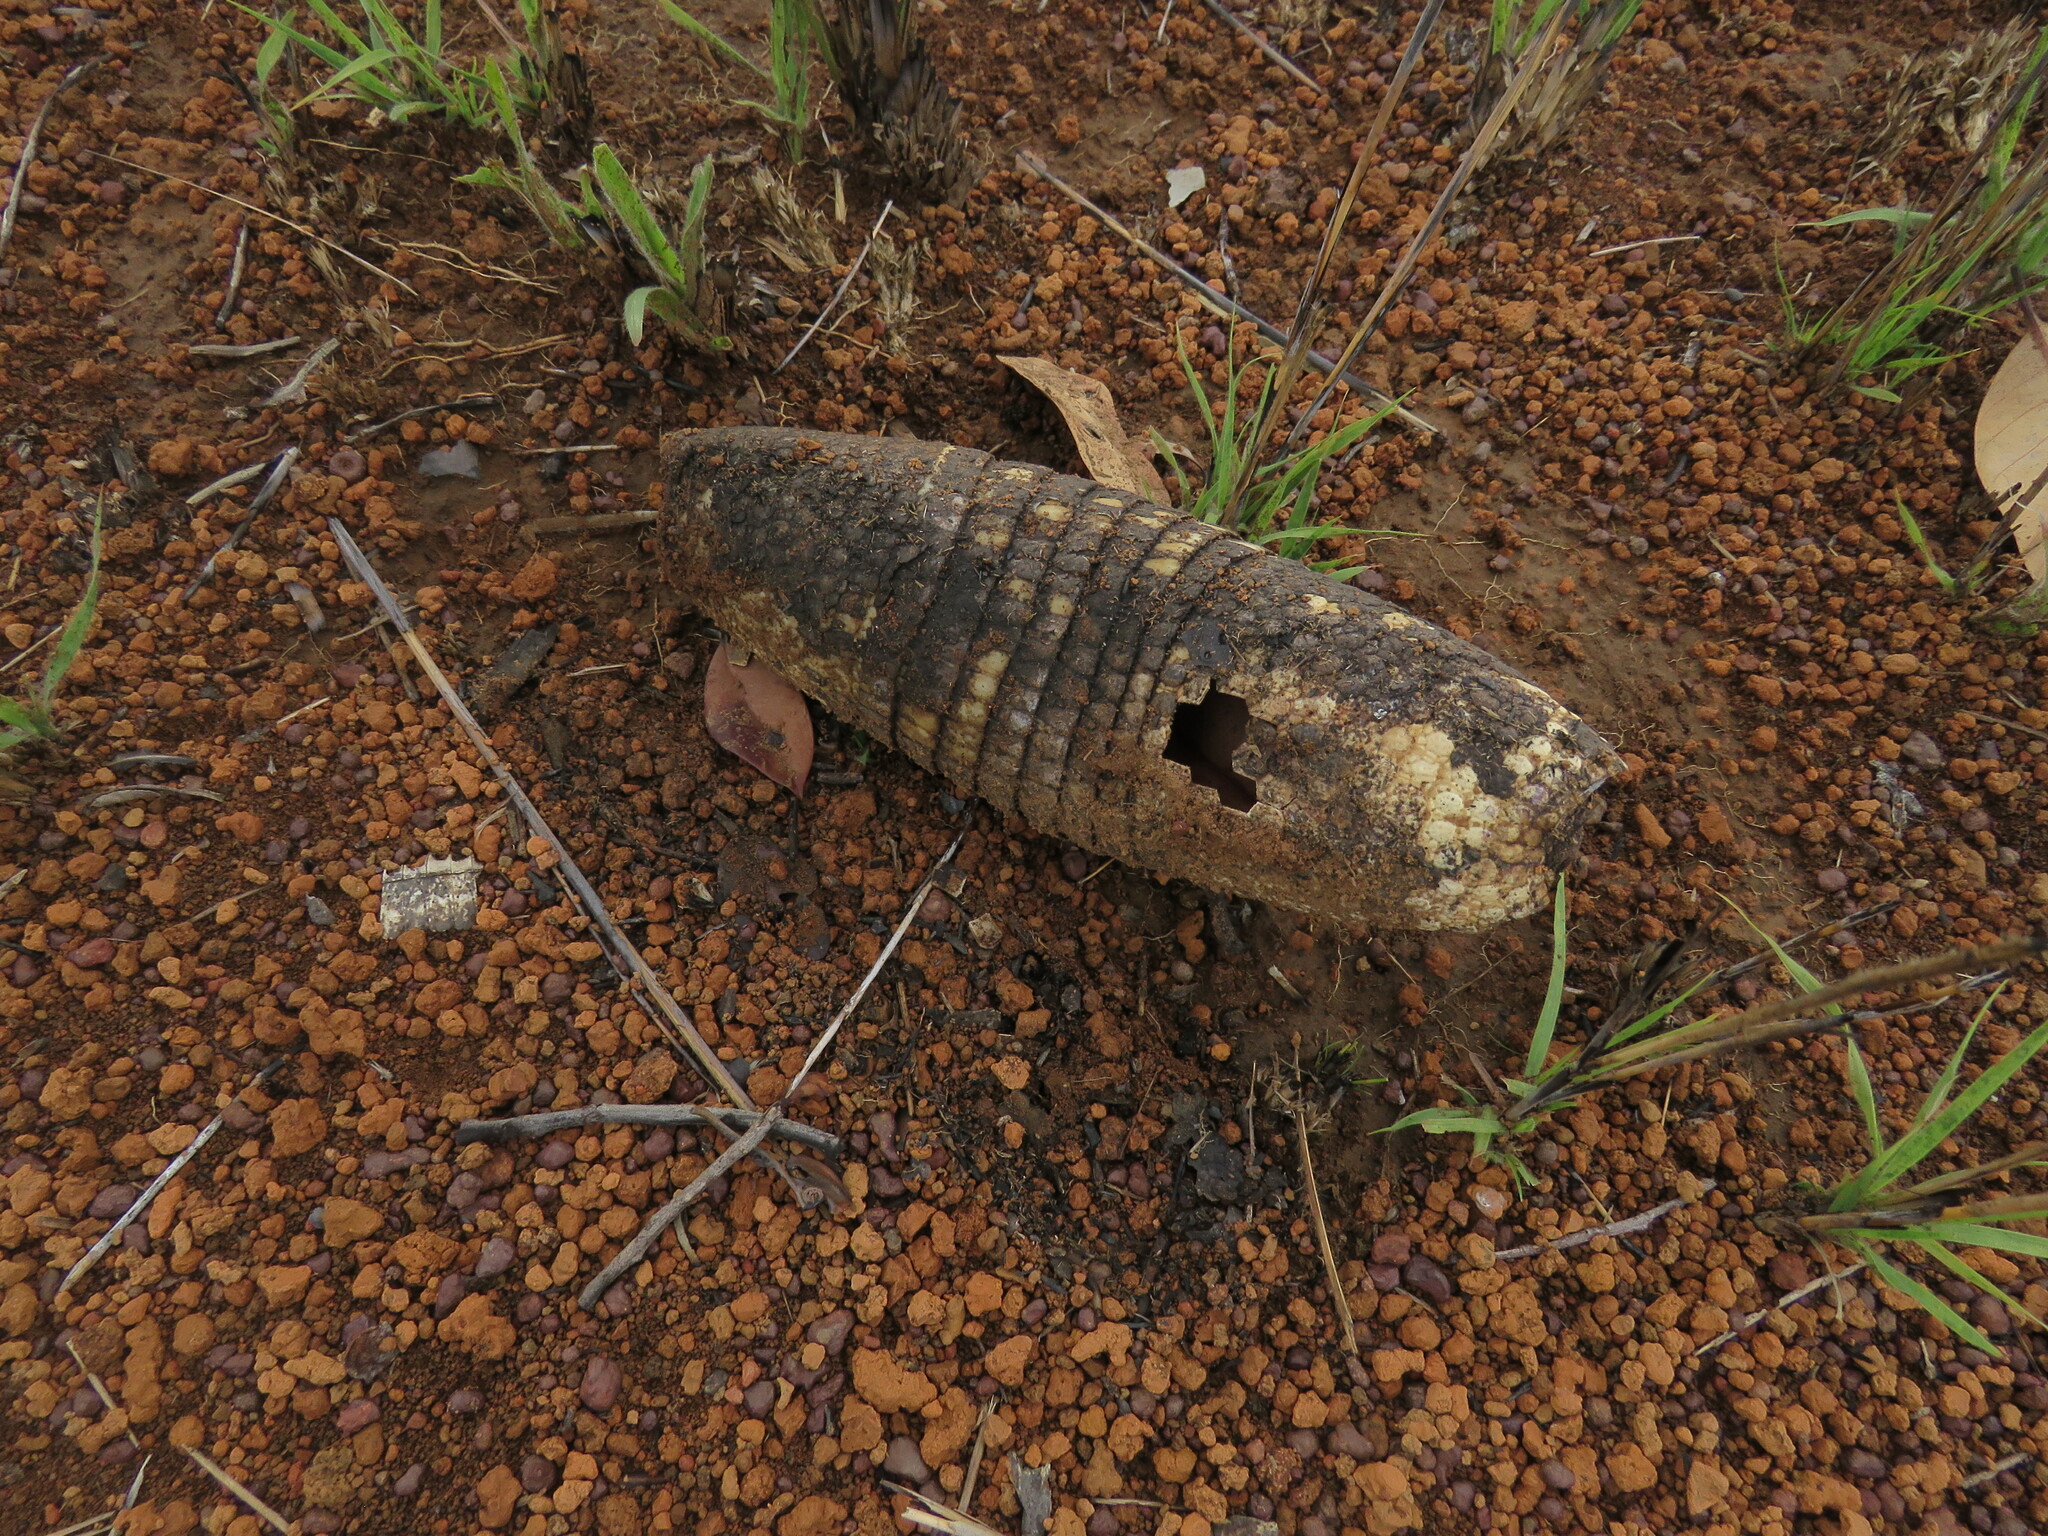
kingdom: Animalia
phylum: Chordata
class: Mammalia
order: Cingulata
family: Dasypodidae
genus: Euphractus
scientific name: Euphractus sexcinctus
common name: Six-banded armadillo
